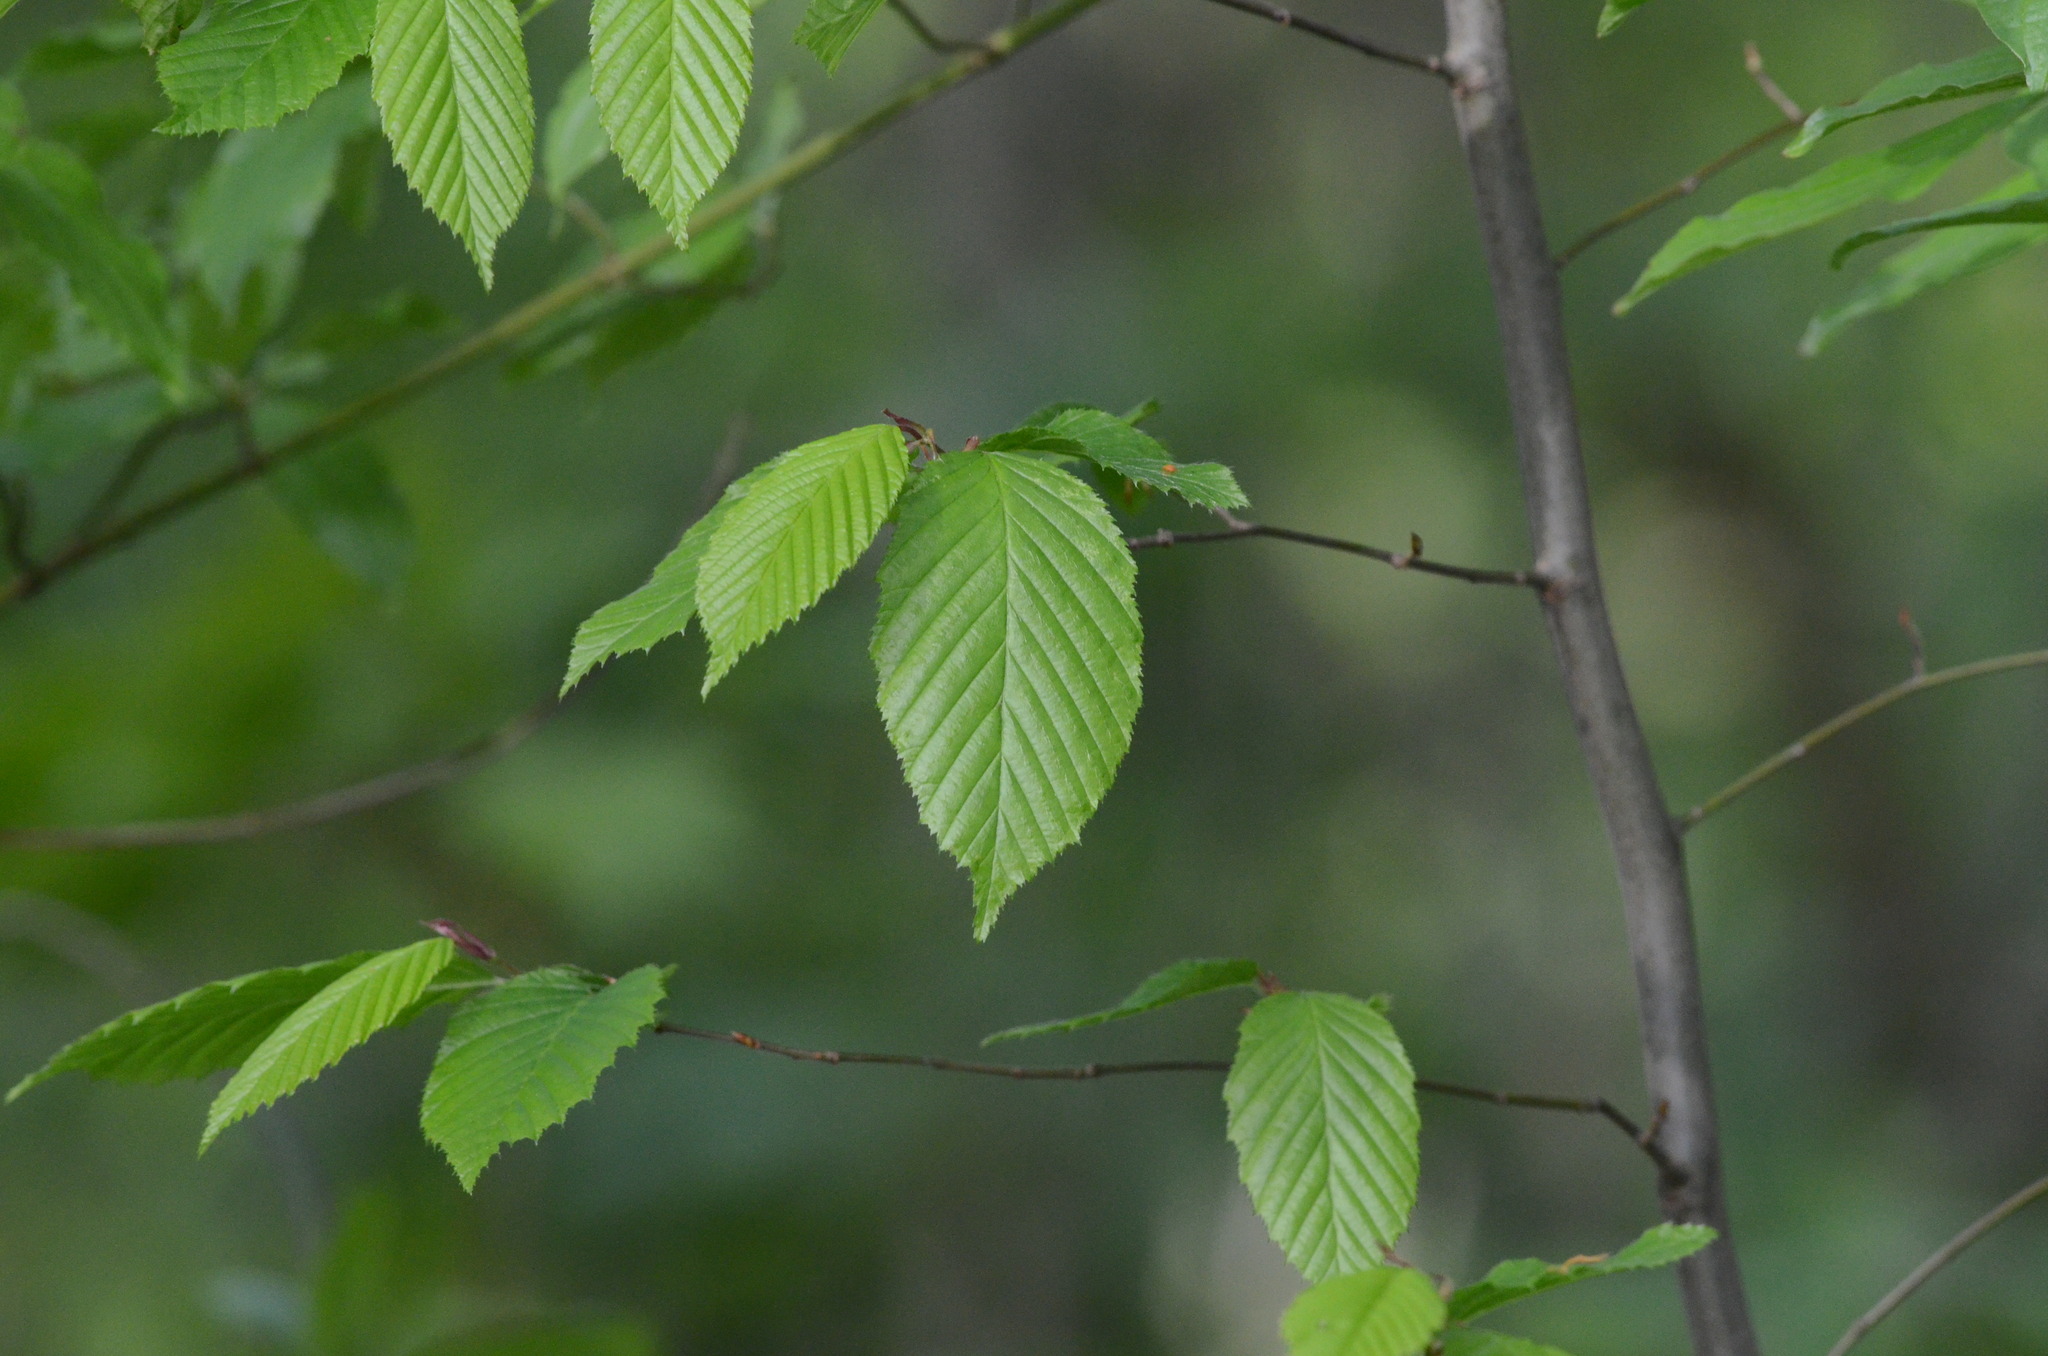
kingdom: Plantae
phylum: Tracheophyta
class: Magnoliopsida
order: Fagales
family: Betulaceae
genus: Carpinus
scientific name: Carpinus betulus
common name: Hornbeam
